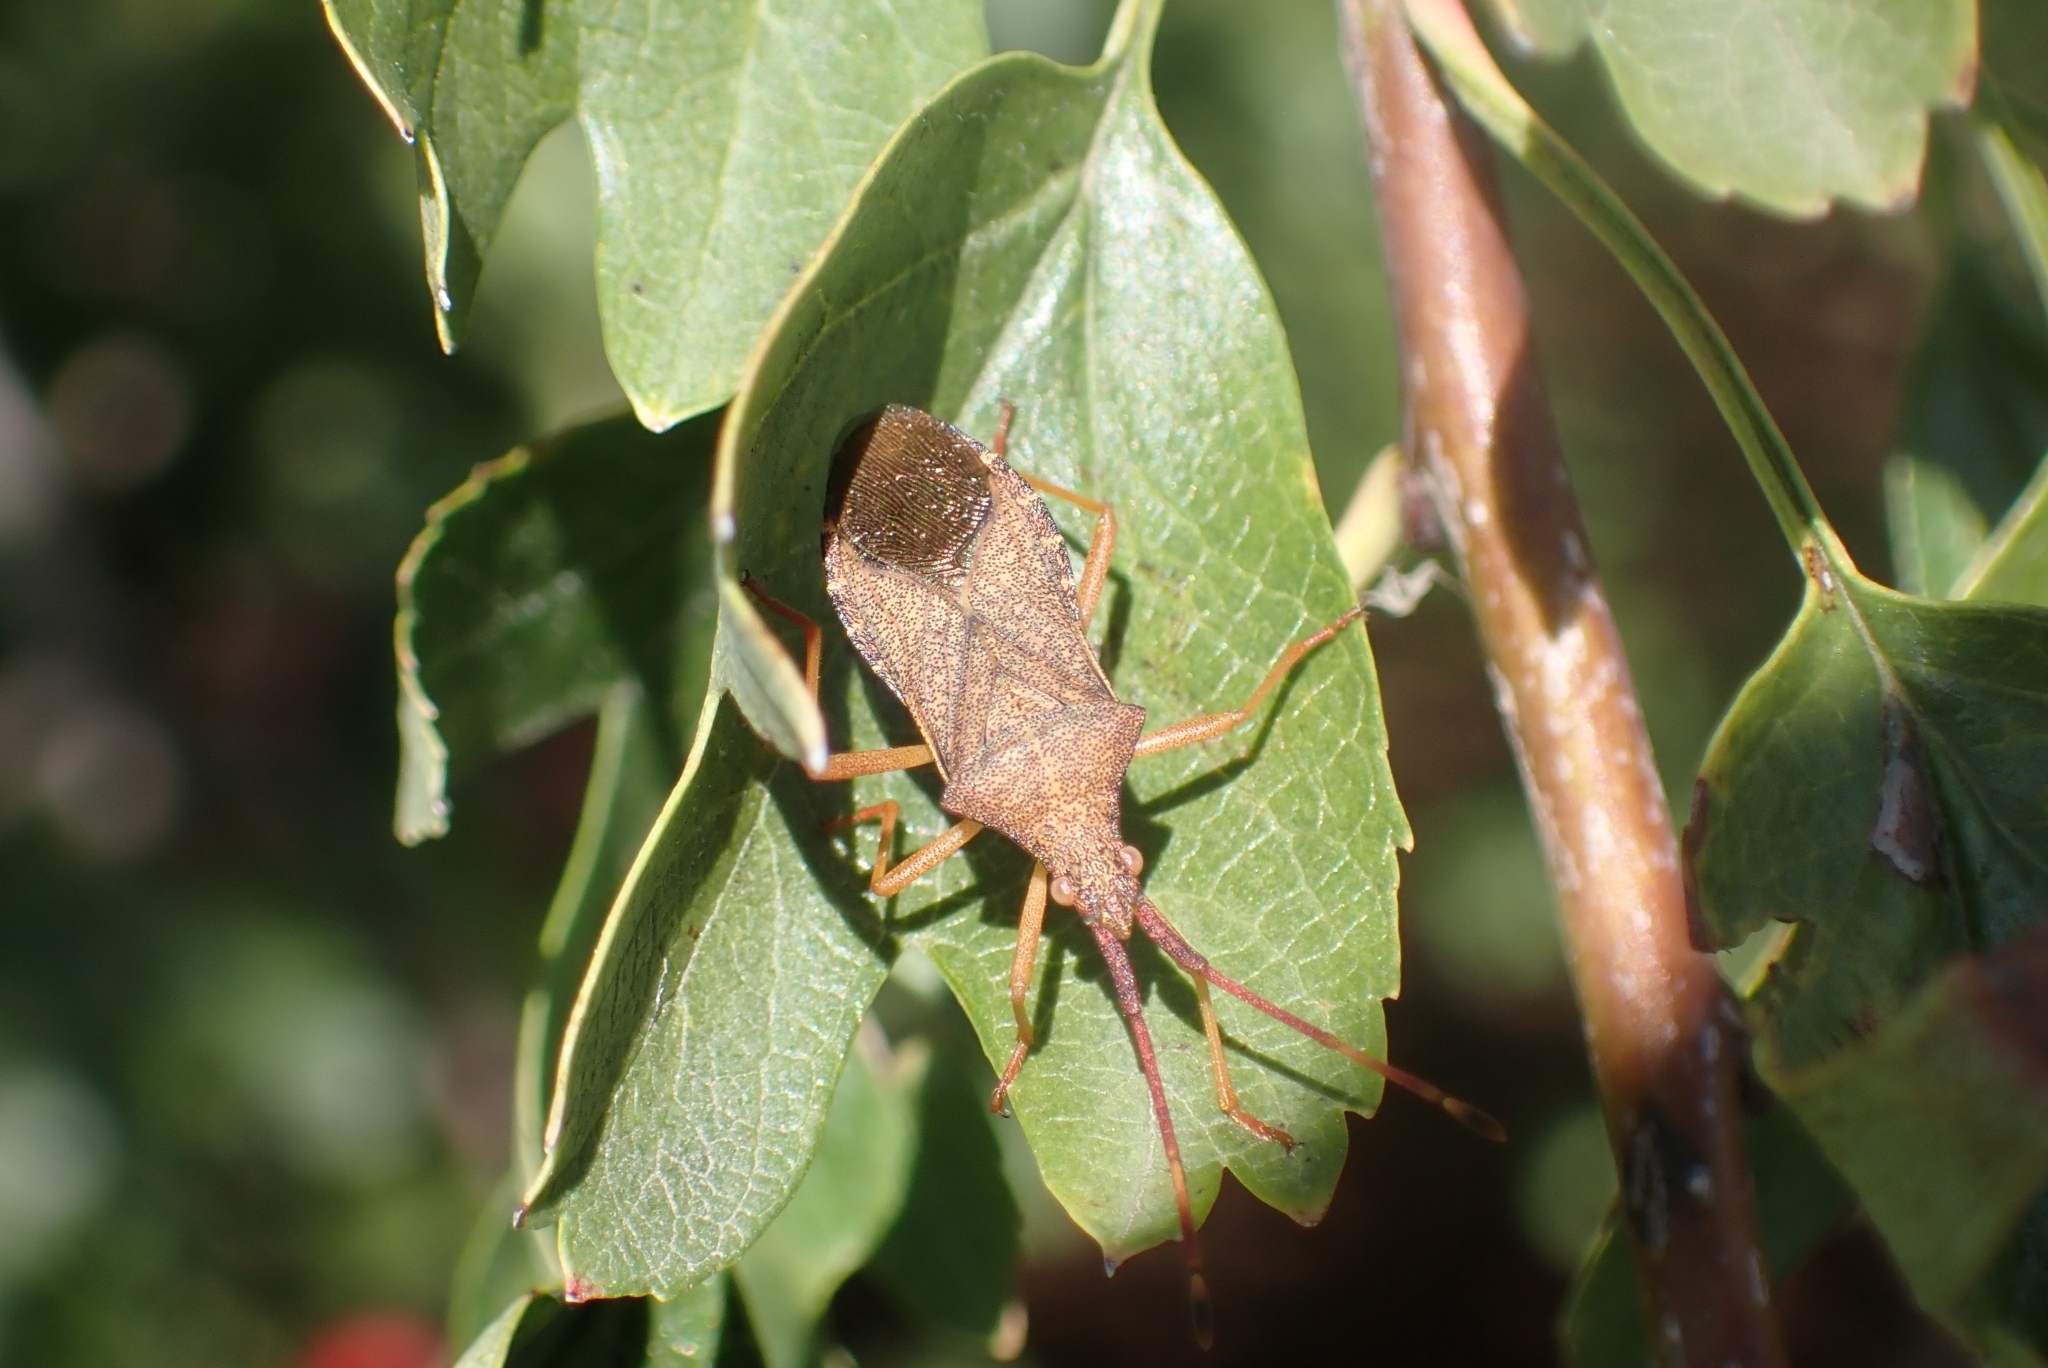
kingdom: Animalia
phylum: Arthropoda
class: Insecta
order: Hemiptera
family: Coreidae
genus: Gonocerus
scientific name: Gonocerus acuteangulatus
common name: Box bug
